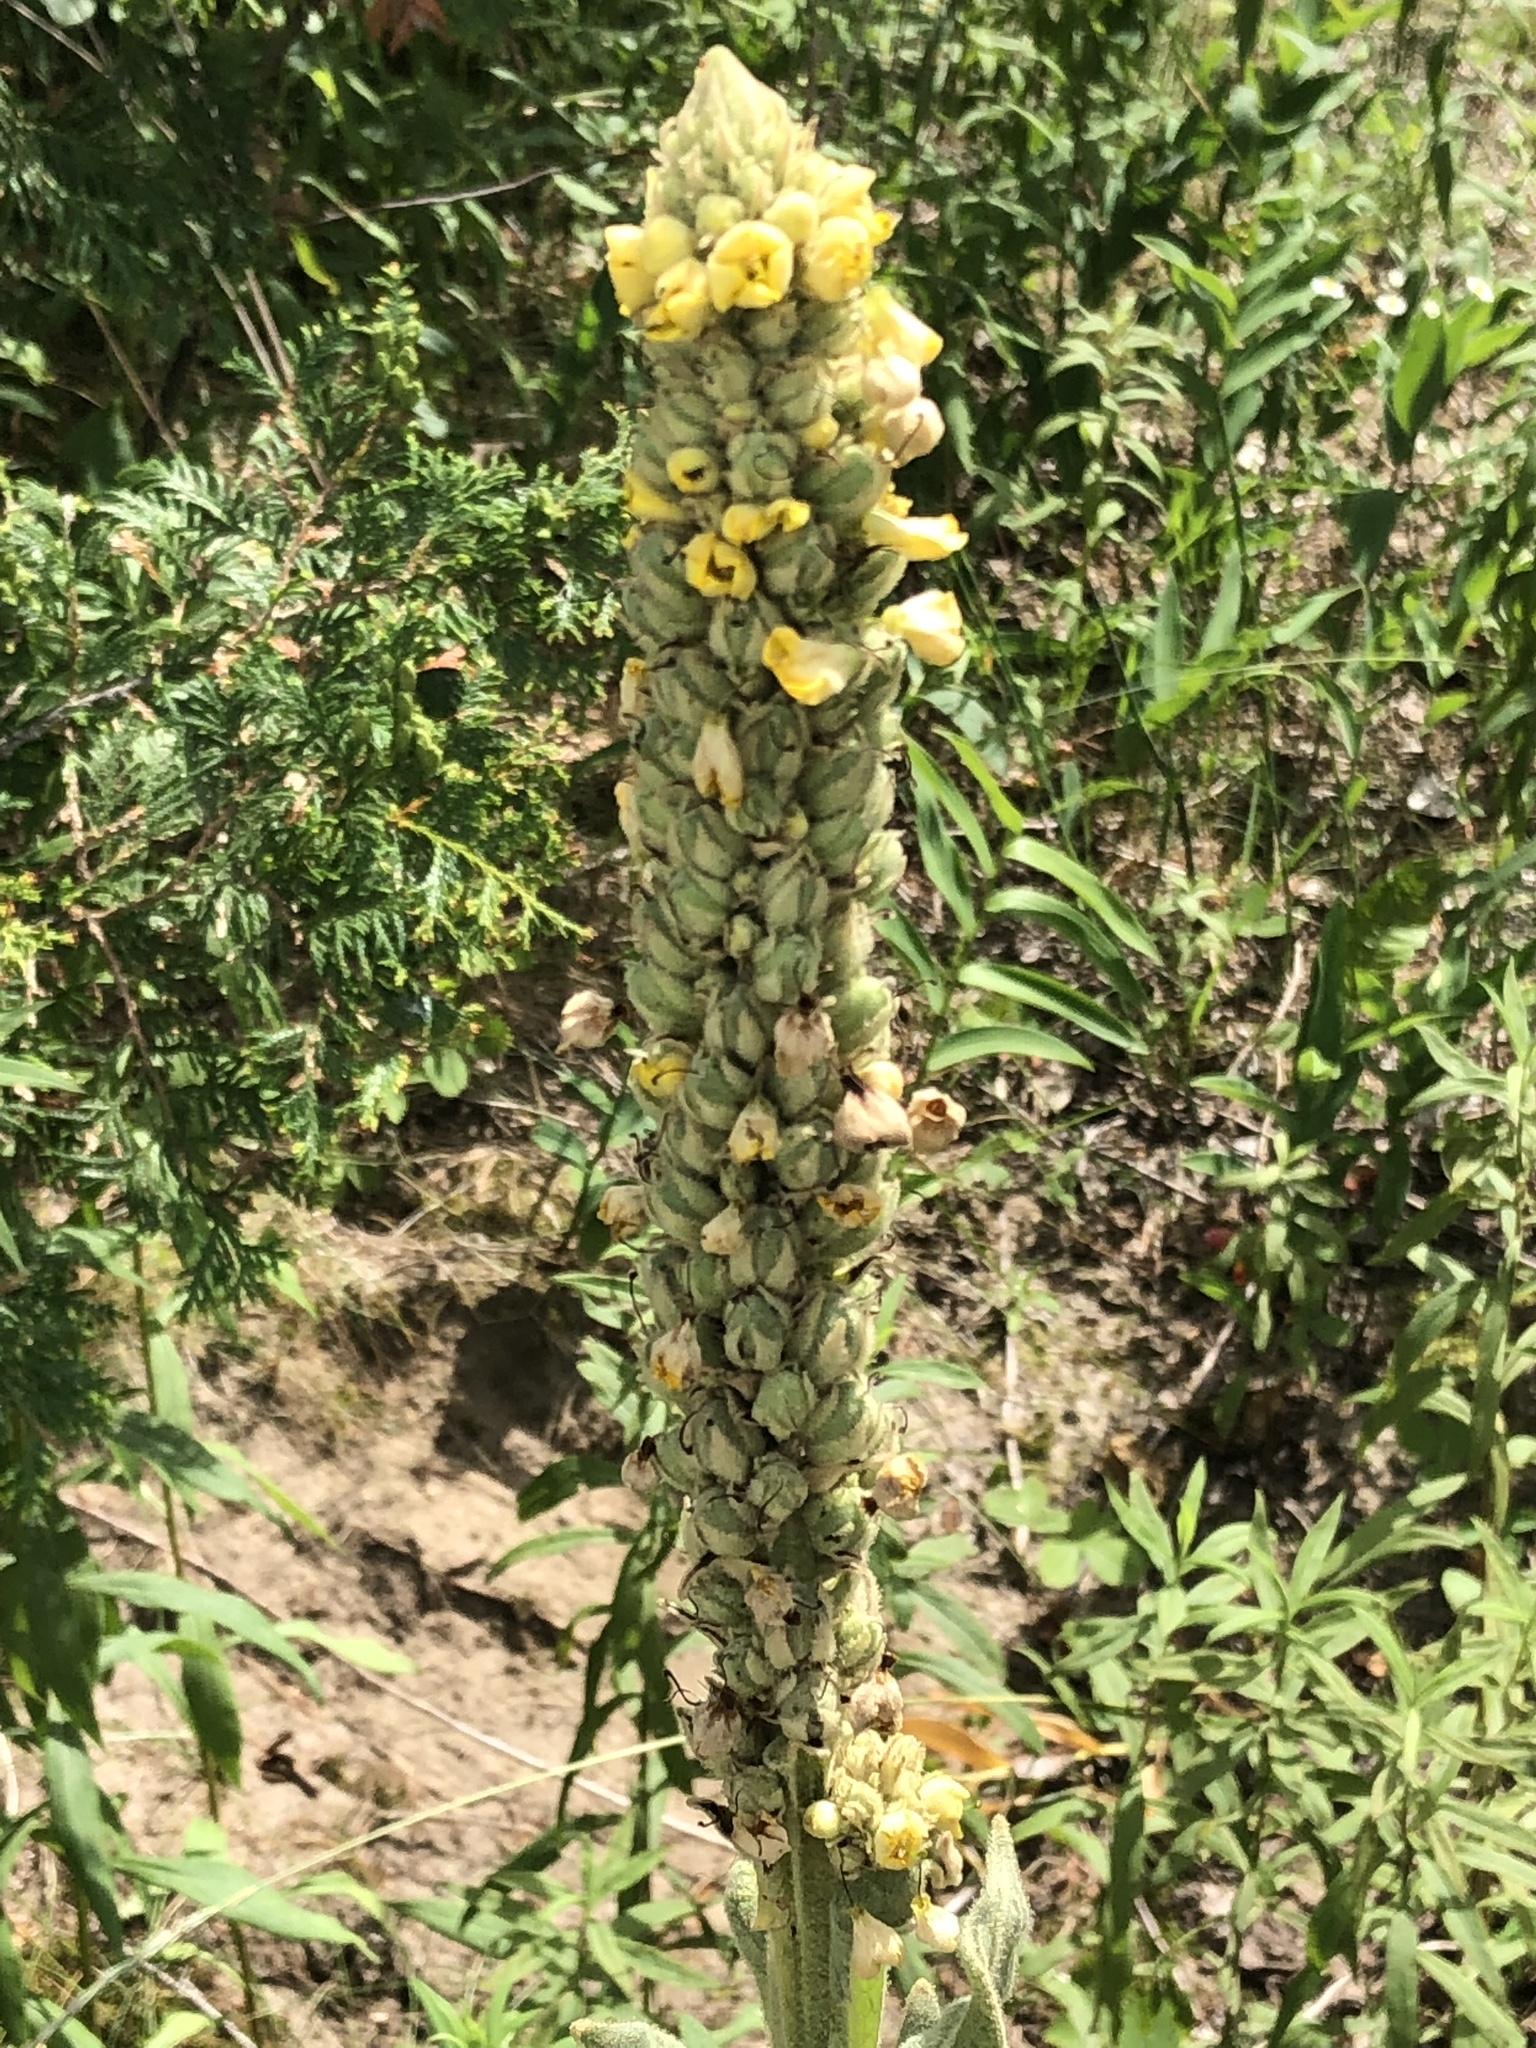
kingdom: Plantae
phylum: Tracheophyta
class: Magnoliopsida
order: Lamiales
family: Scrophulariaceae
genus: Verbascum
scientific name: Verbascum thapsus
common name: Common mullein
